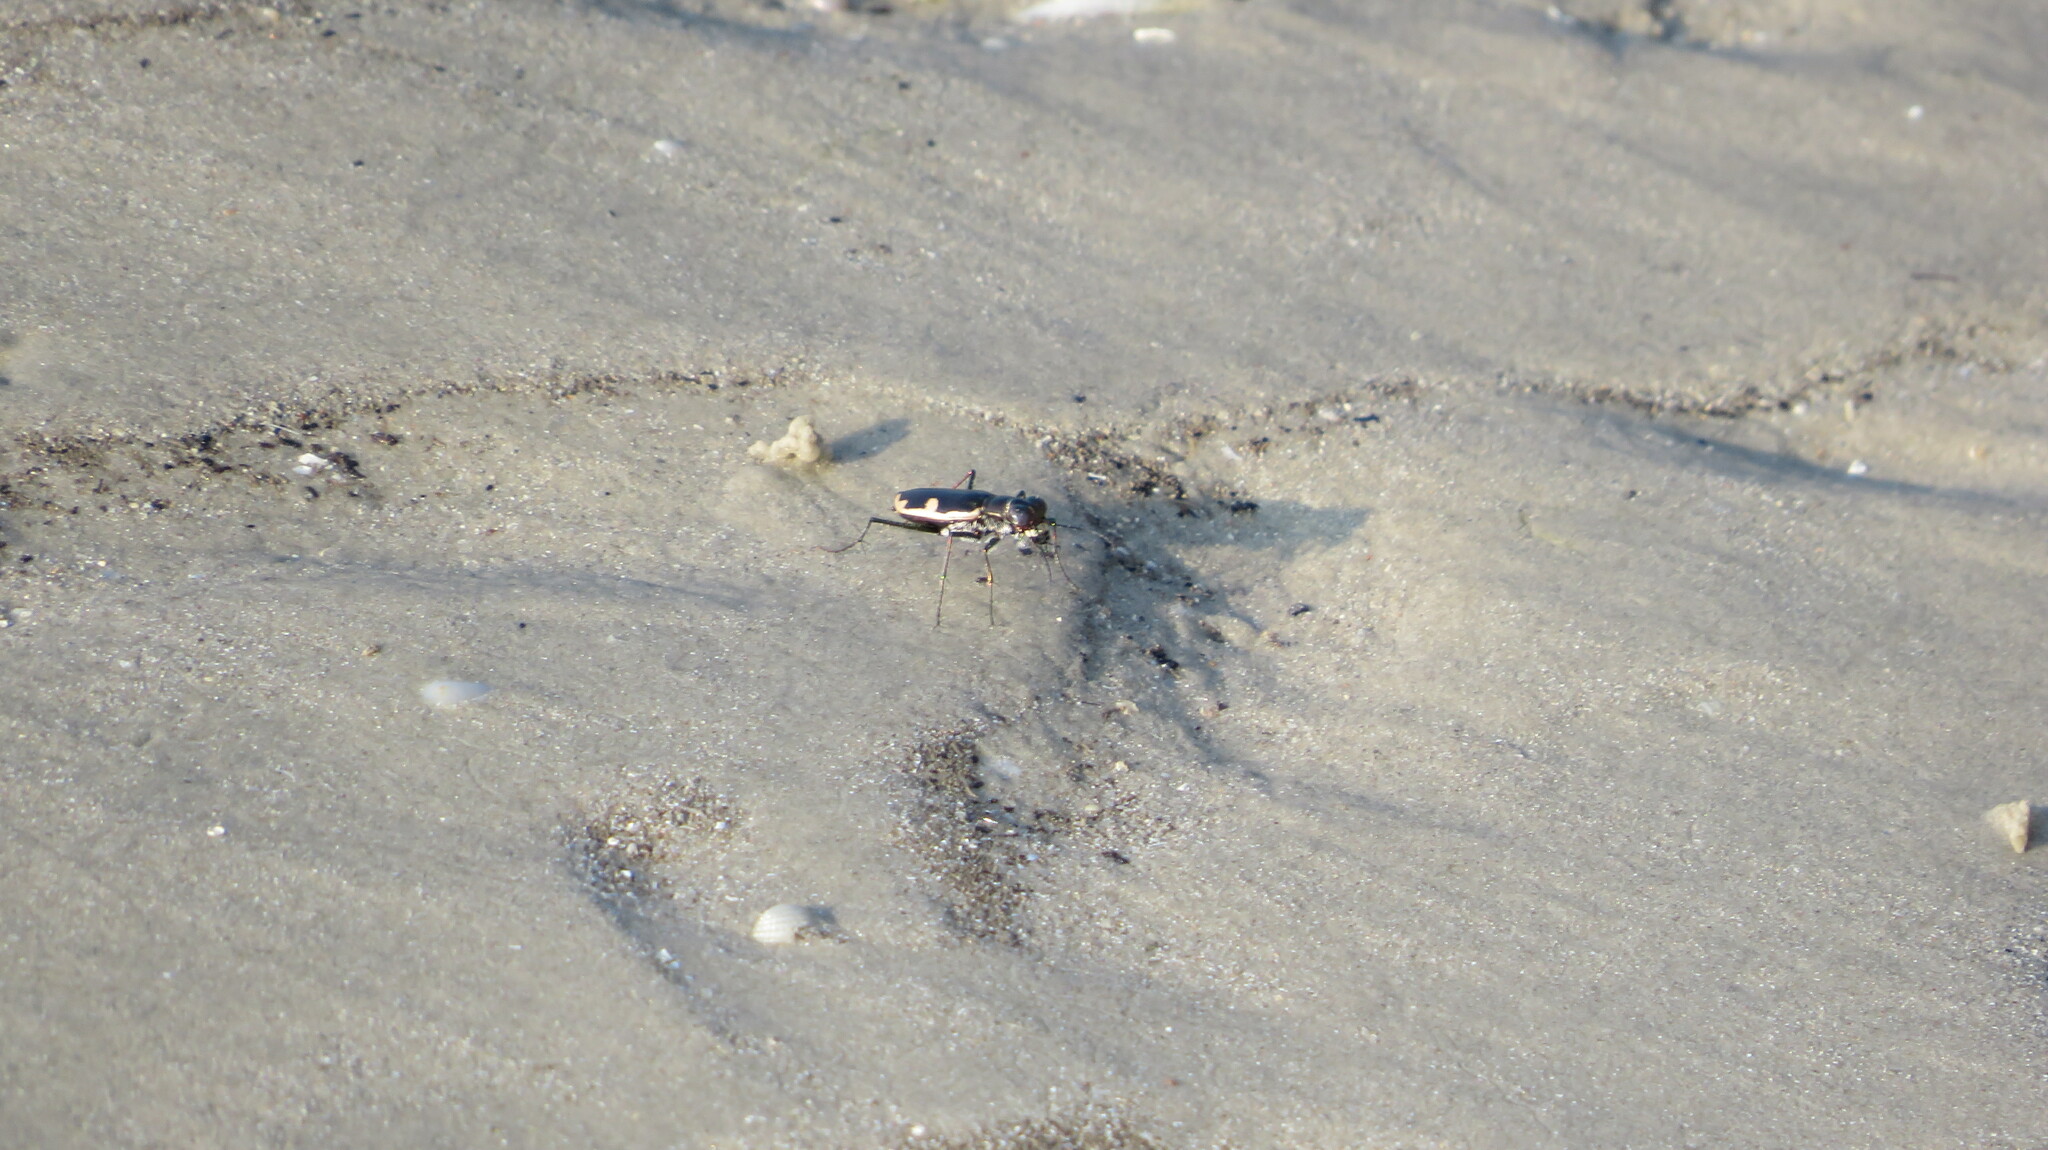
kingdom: Animalia
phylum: Arthropoda
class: Insecta
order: Coleoptera
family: Carabidae
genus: Hypaetha
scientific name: Hypaetha biramosa
